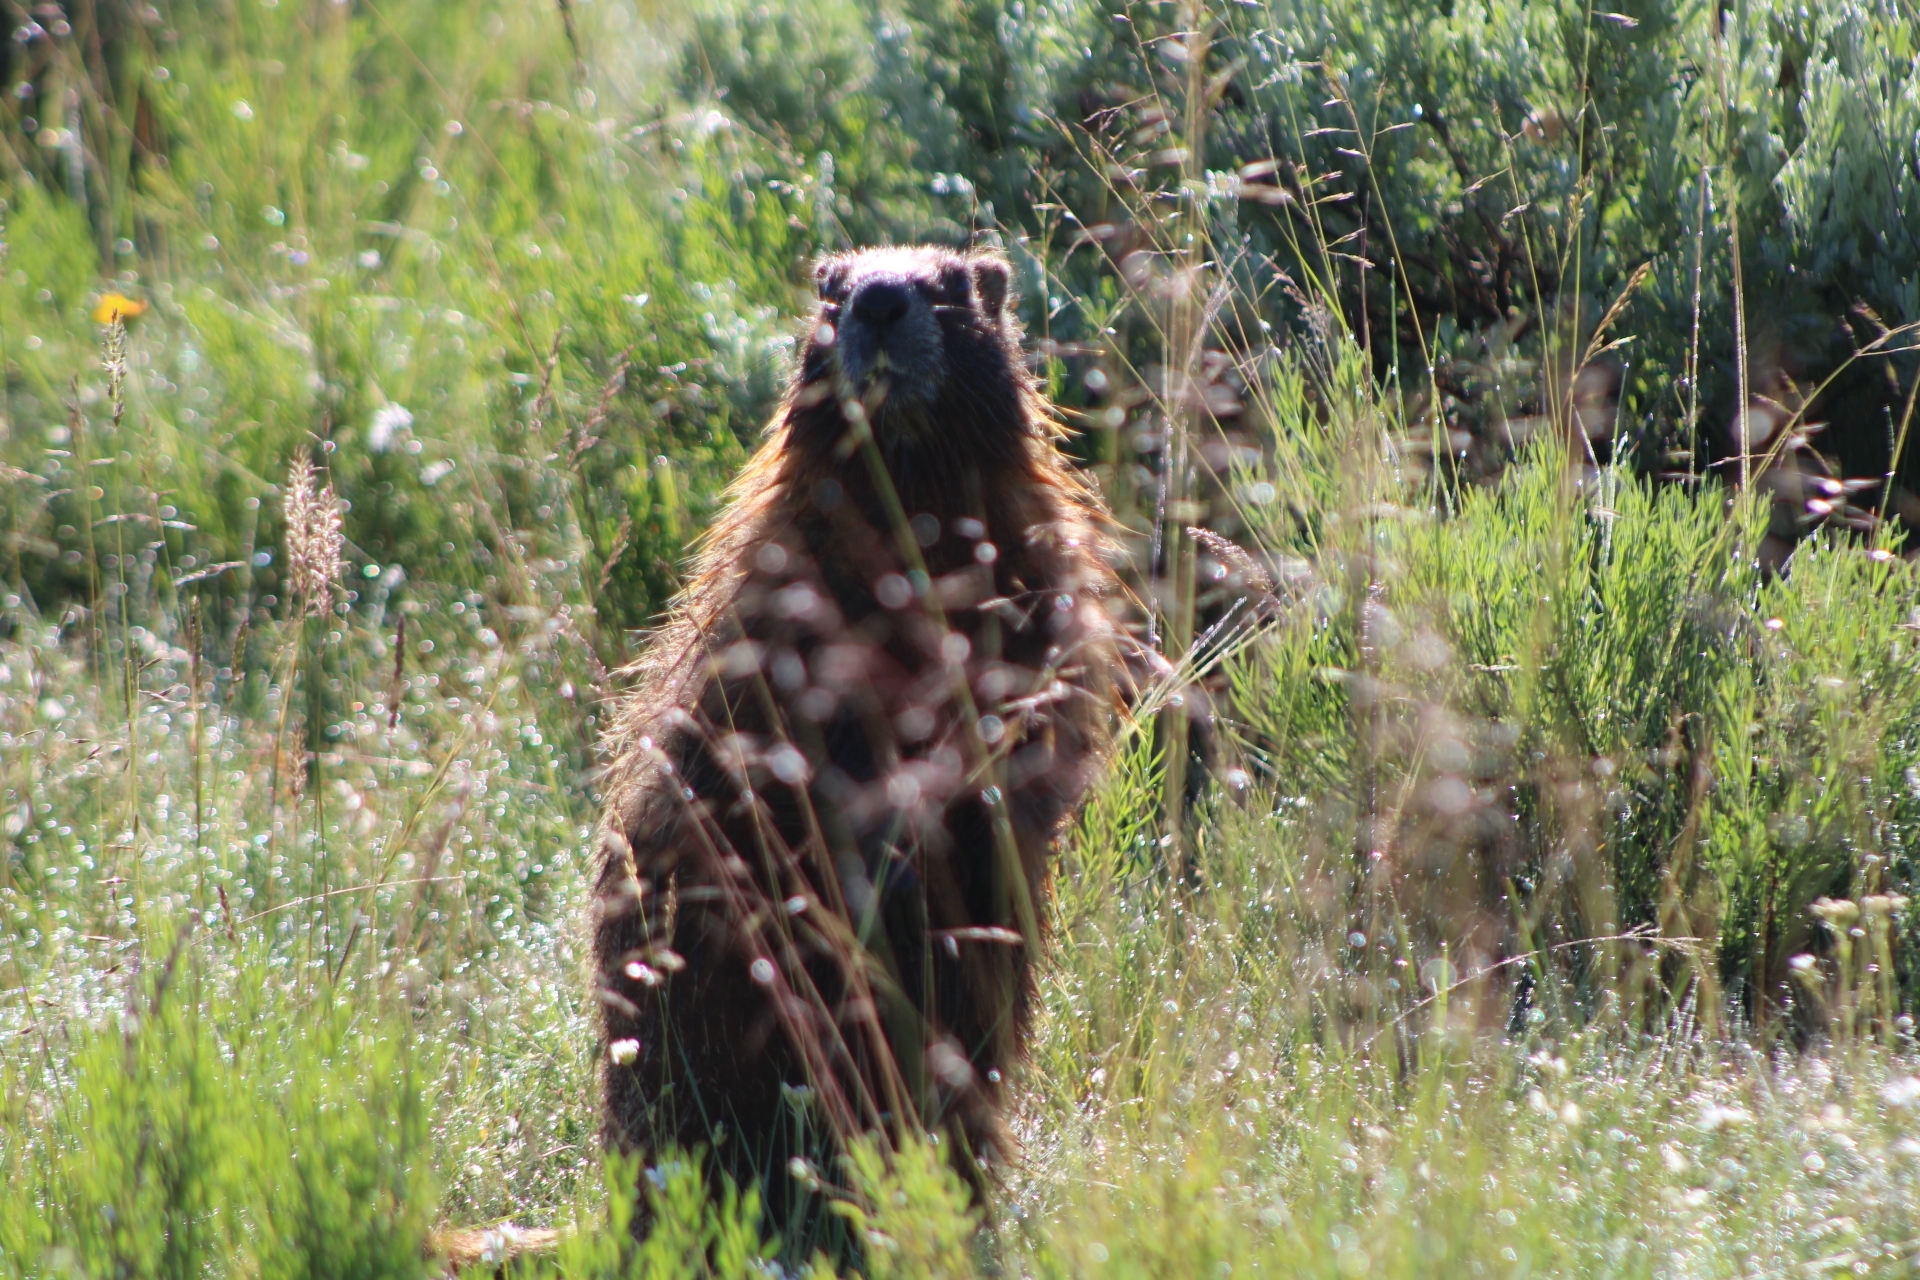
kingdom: Animalia
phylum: Chordata
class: Mammalia
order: Rodentia
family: Sciuridae
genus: Marmota
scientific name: Marmota flaviventris
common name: Yellow-bellied marmot
